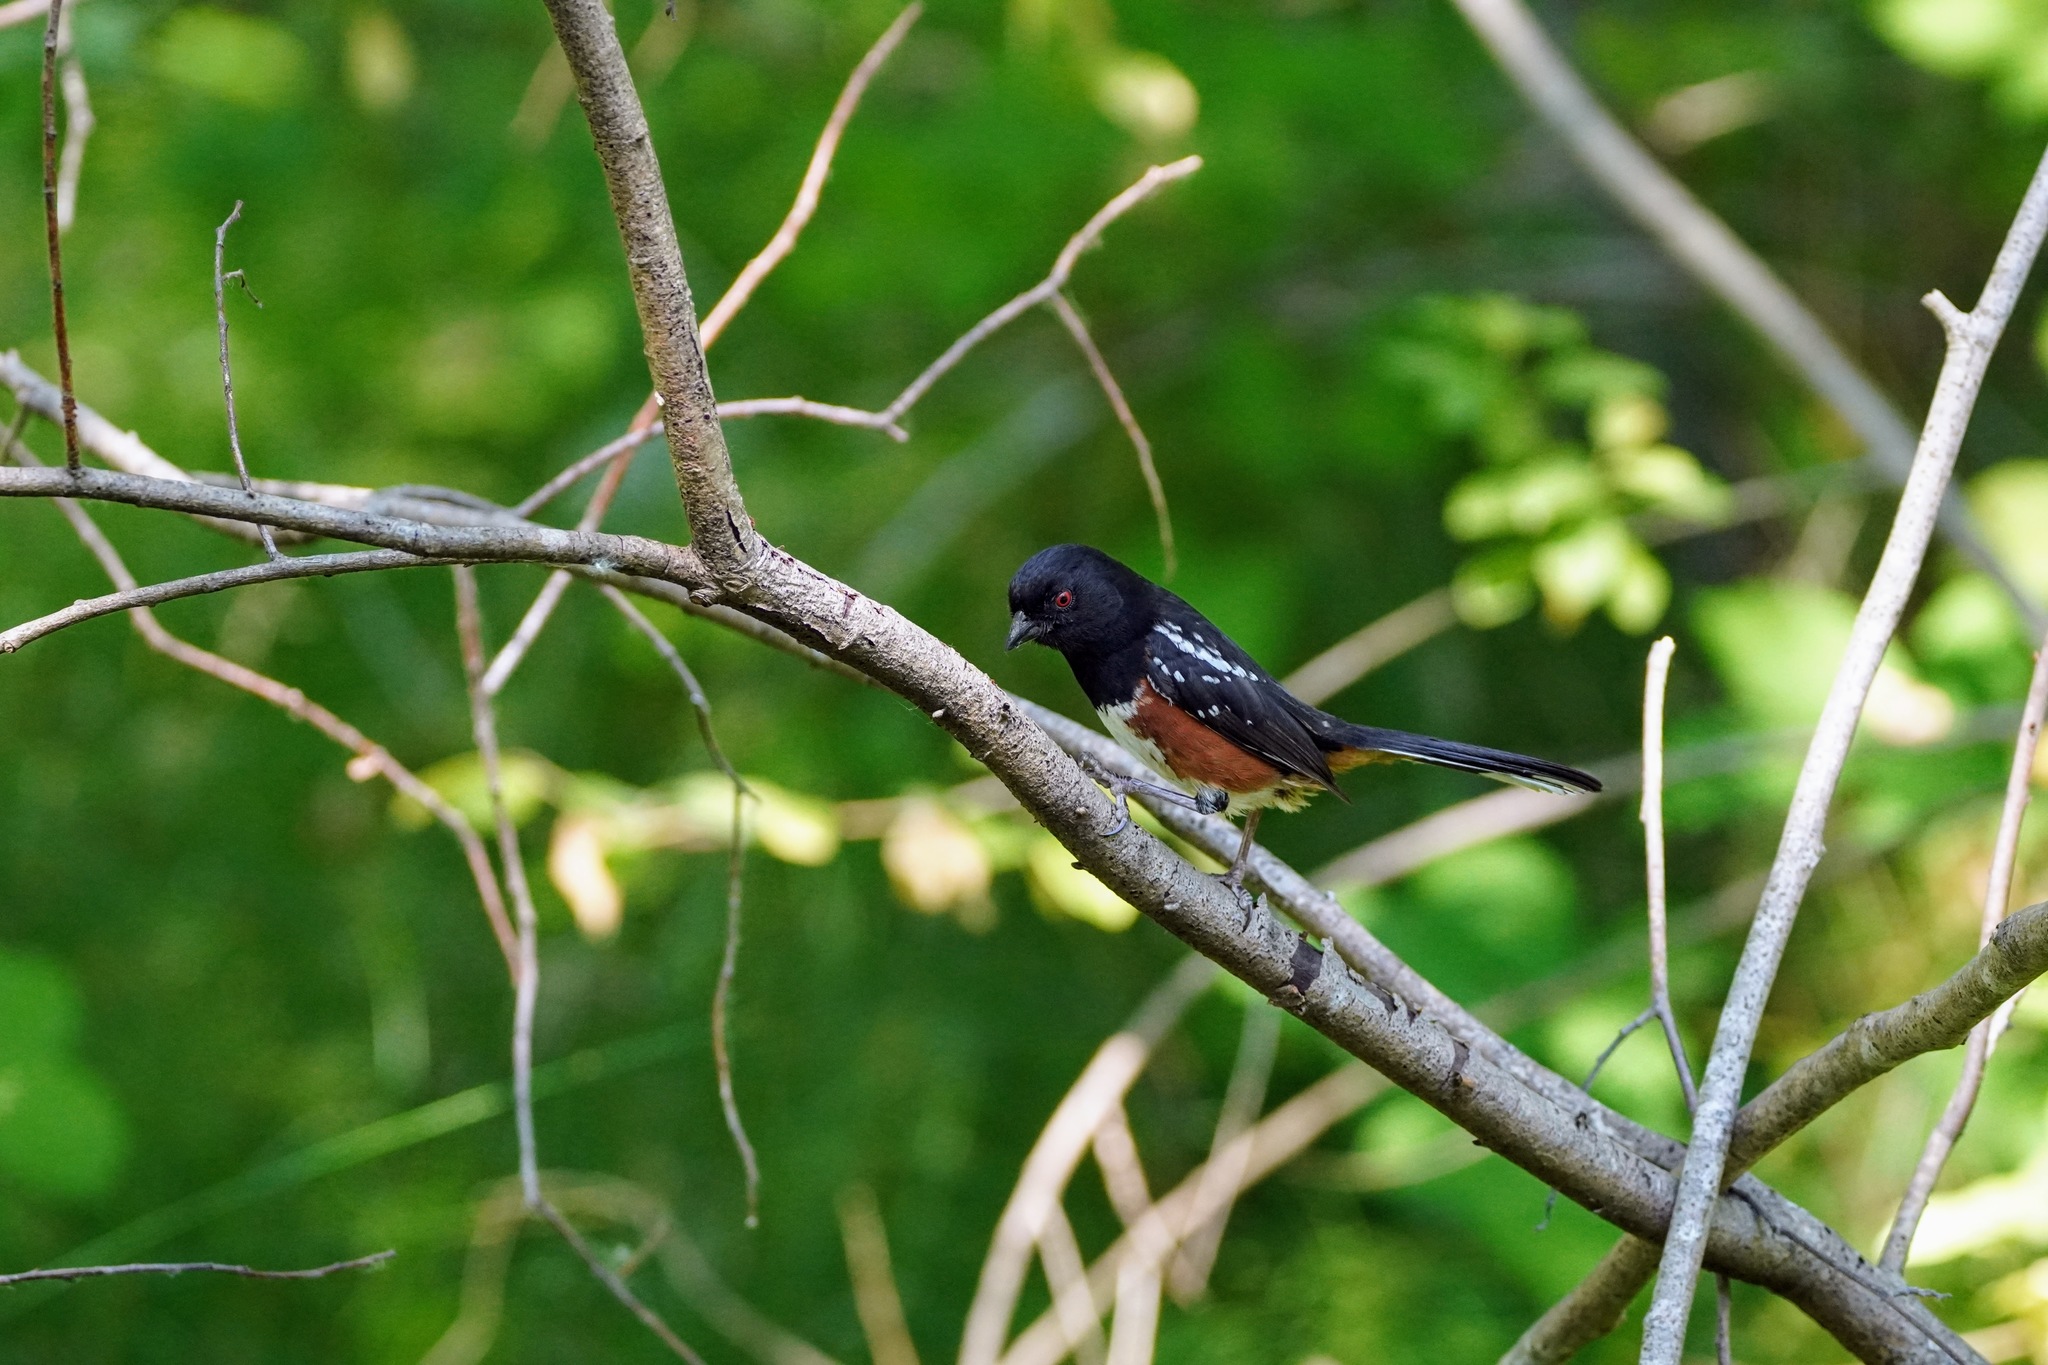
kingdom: Animalia
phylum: Chordata
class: Aves
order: Passeriformes
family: Passerellidae
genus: Pipilo
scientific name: Pipilo maculatus
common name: Spotted towhee
